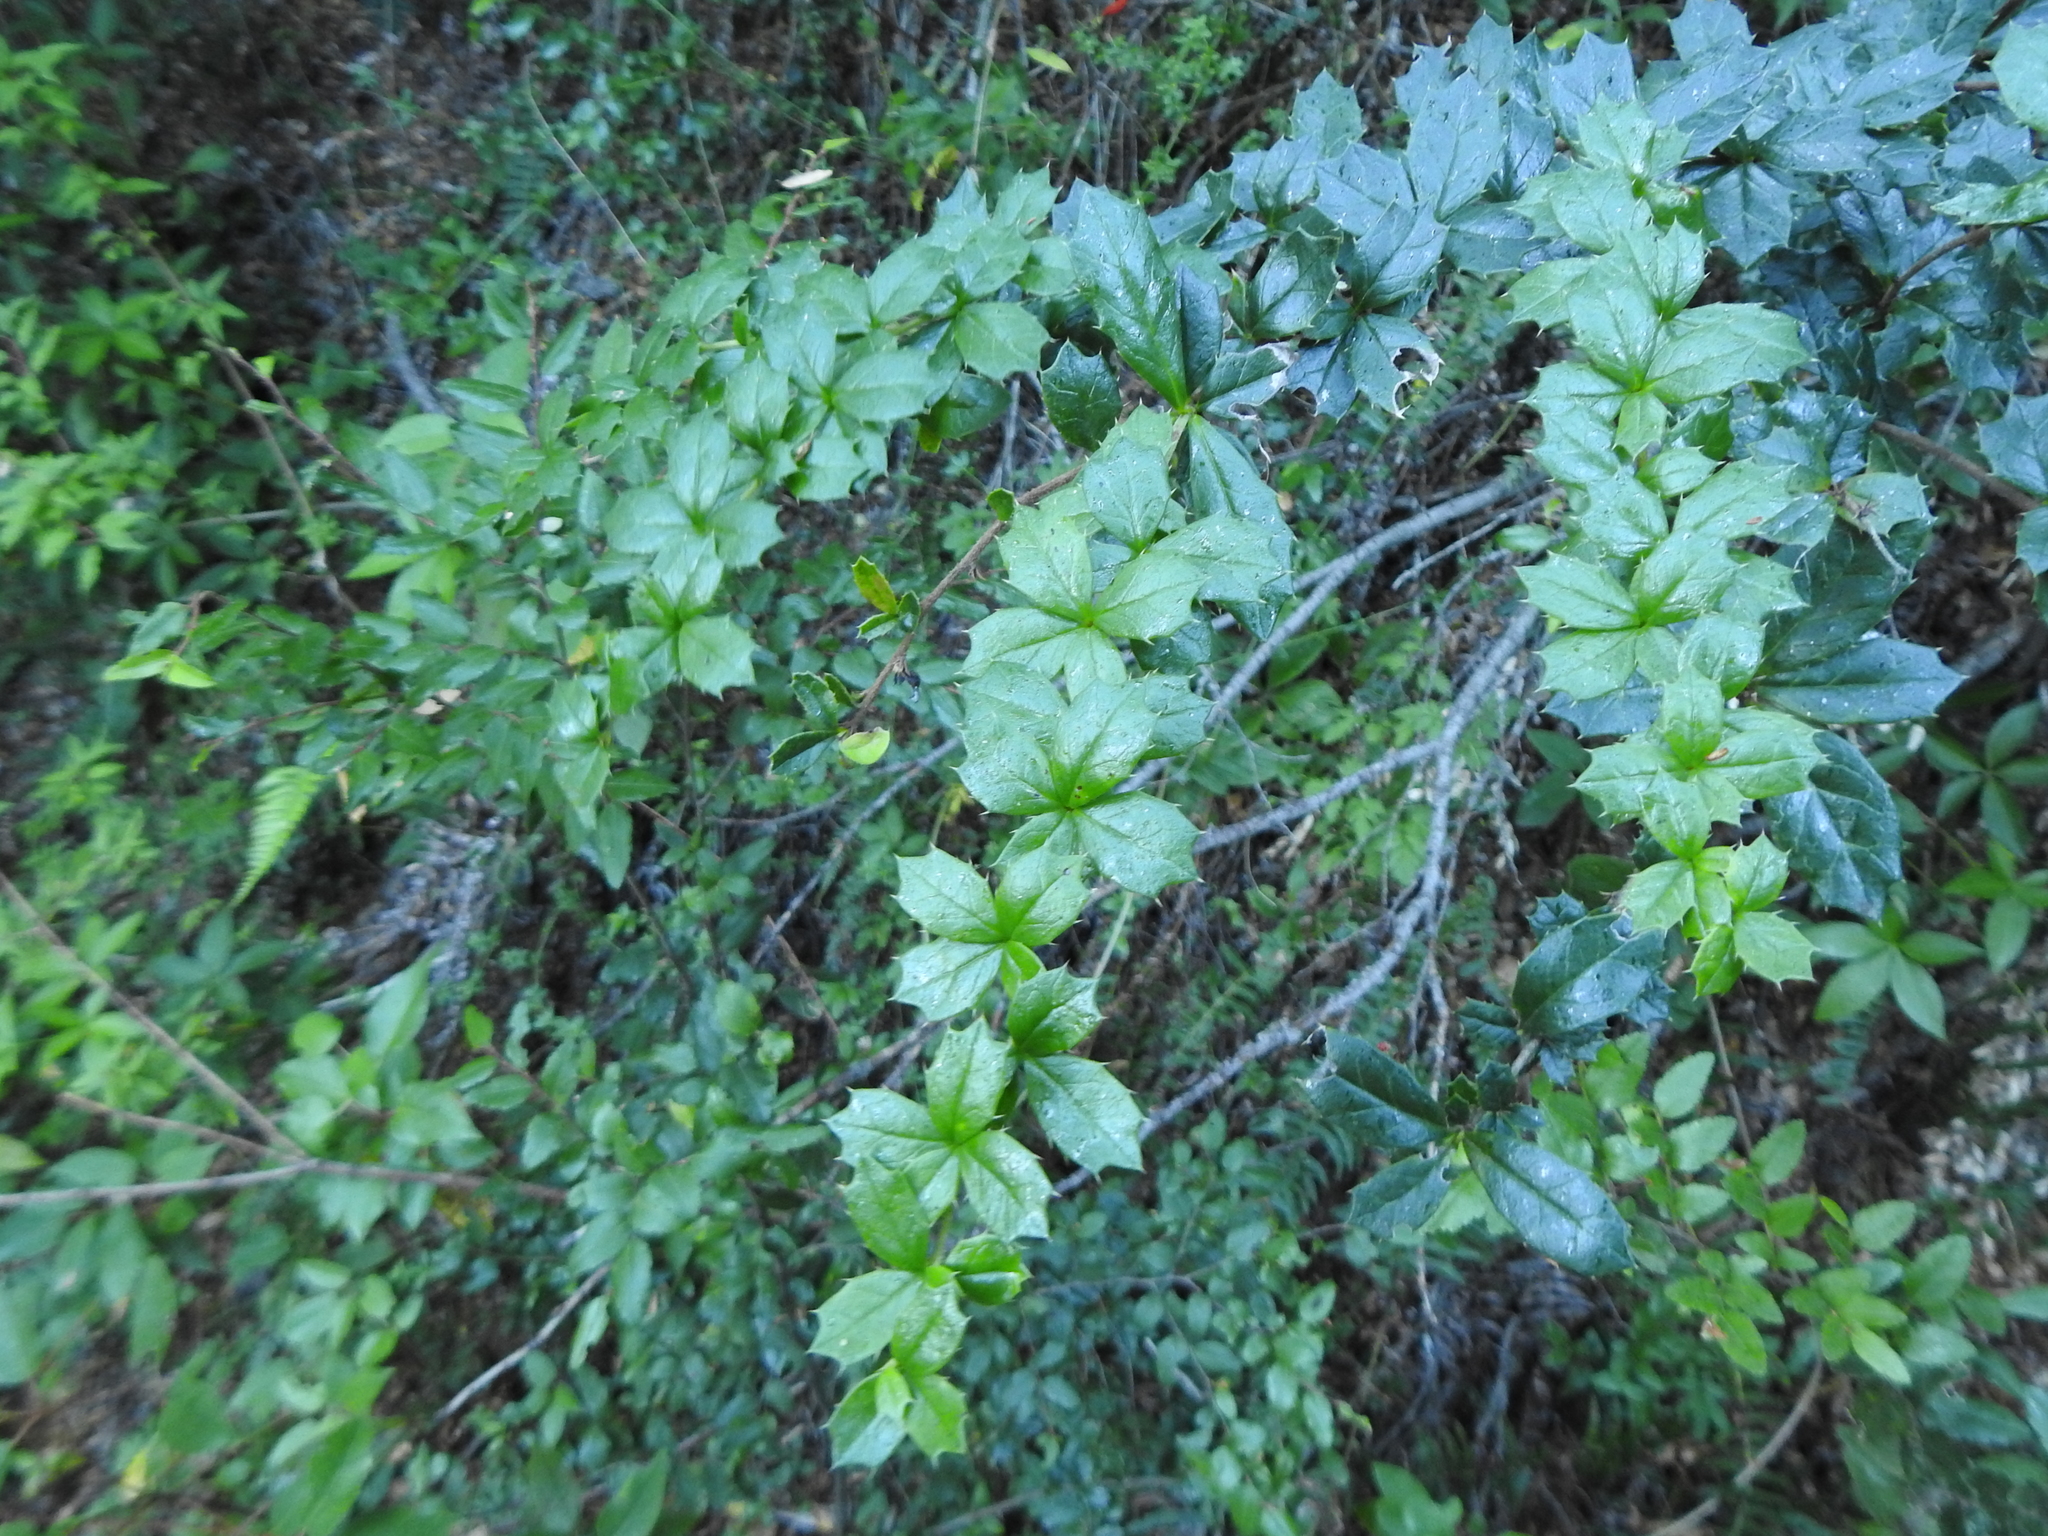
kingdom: Plantae
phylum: Tracheophyta
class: Magnoliopsida
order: Ranunculales
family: Berberidaceae
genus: Berberis
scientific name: Berberis darwinii
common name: Darwin's barberry
